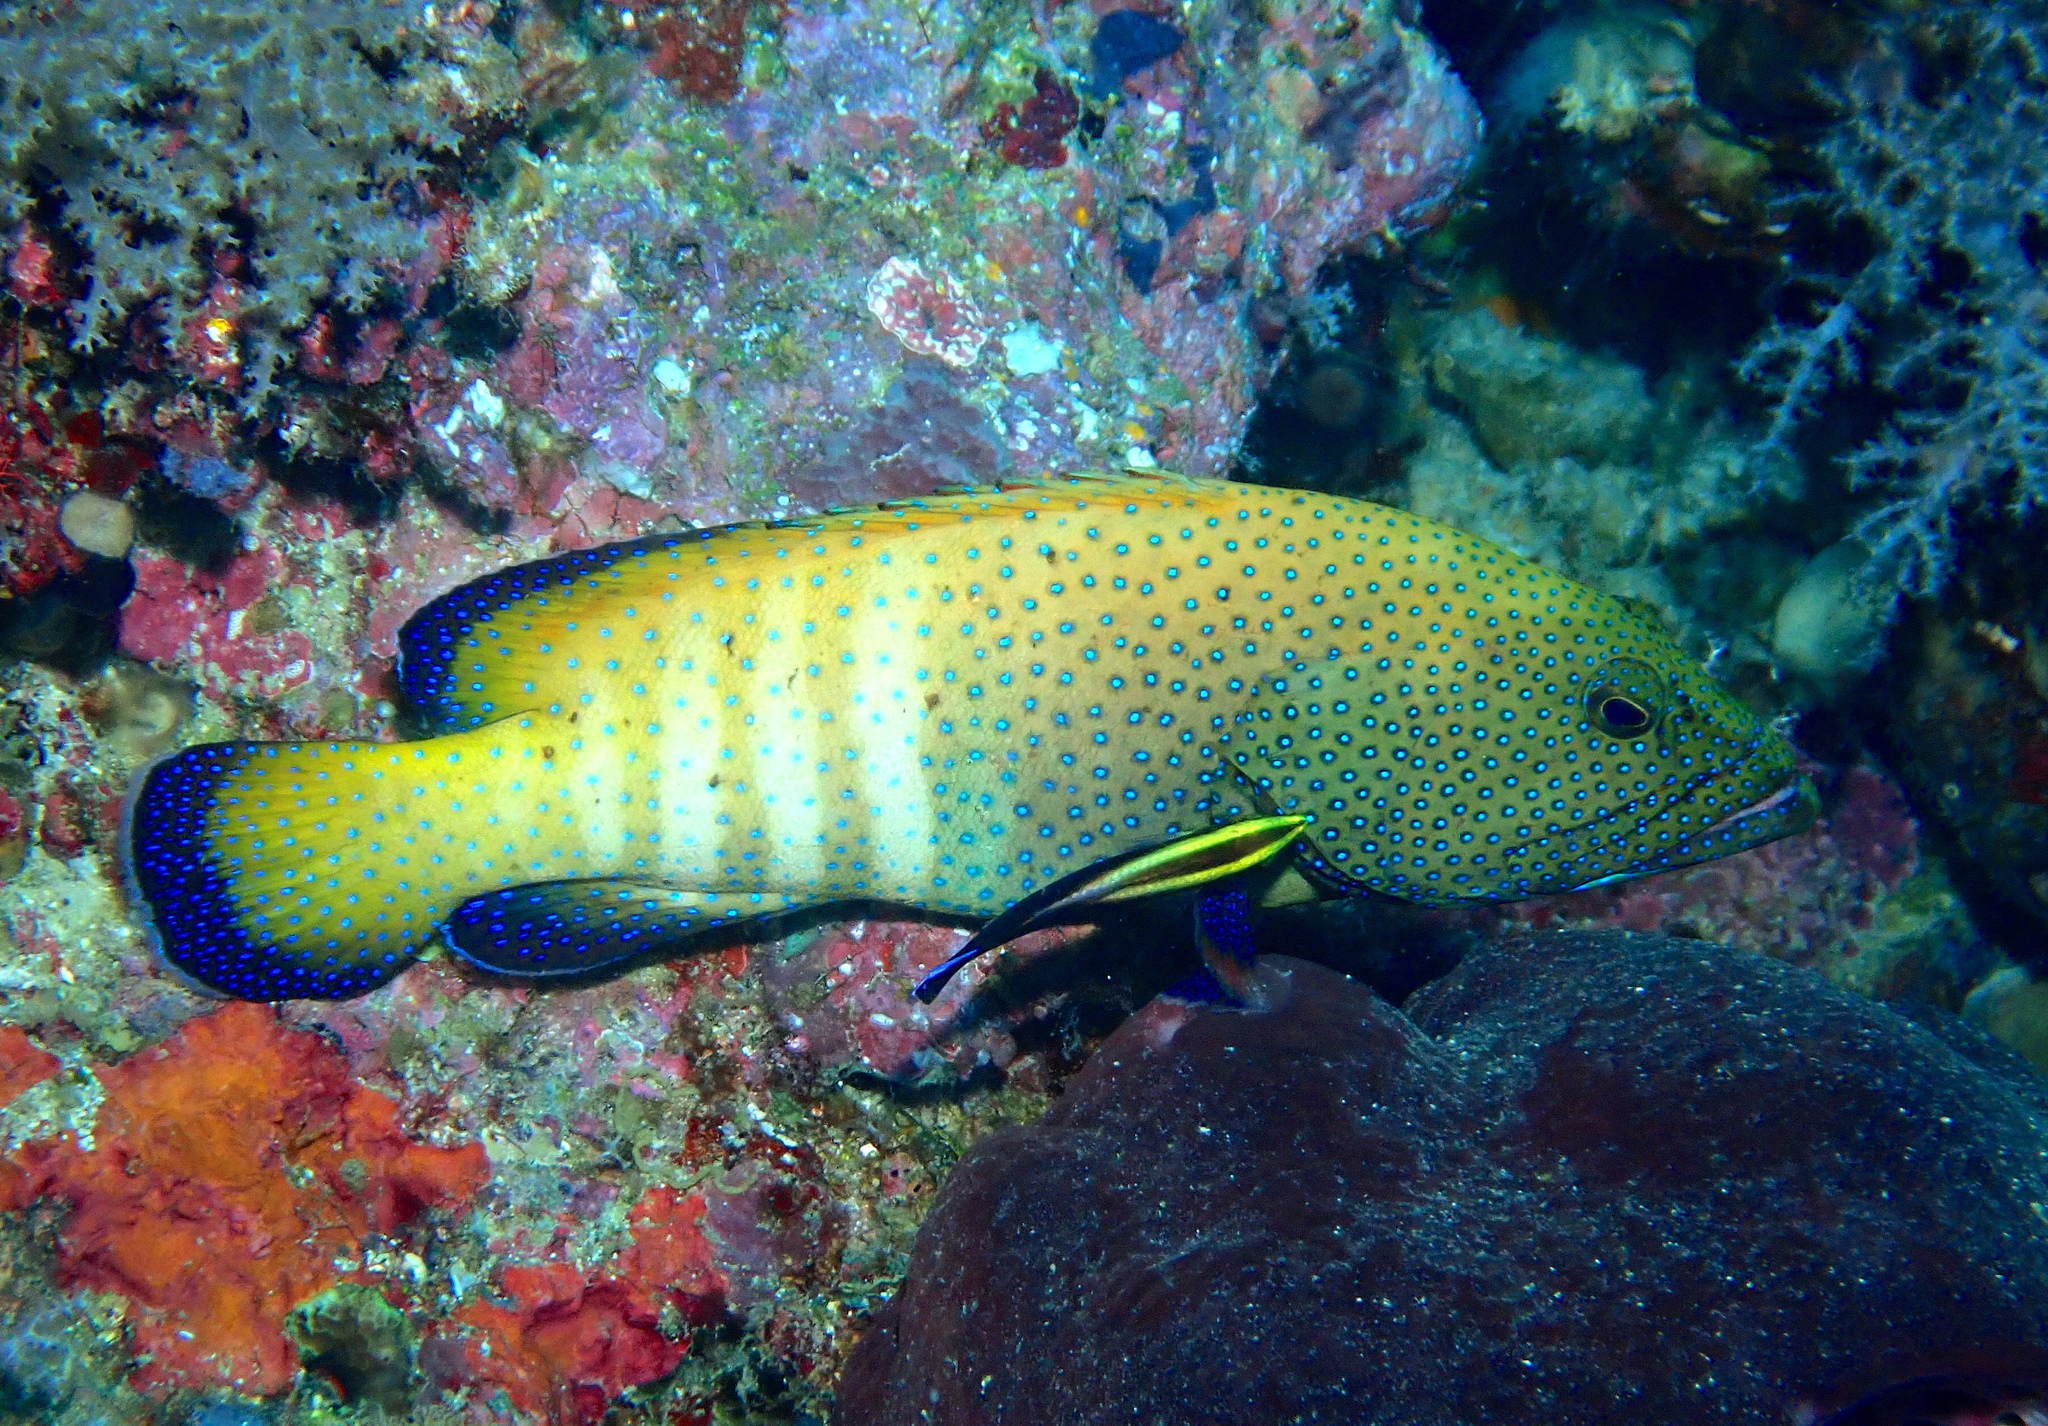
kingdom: Animalia
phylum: Chordata
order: Perciformes
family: Serranidae
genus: Cephalopholis
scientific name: Cephalopholis argus
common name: Peacock grouper
